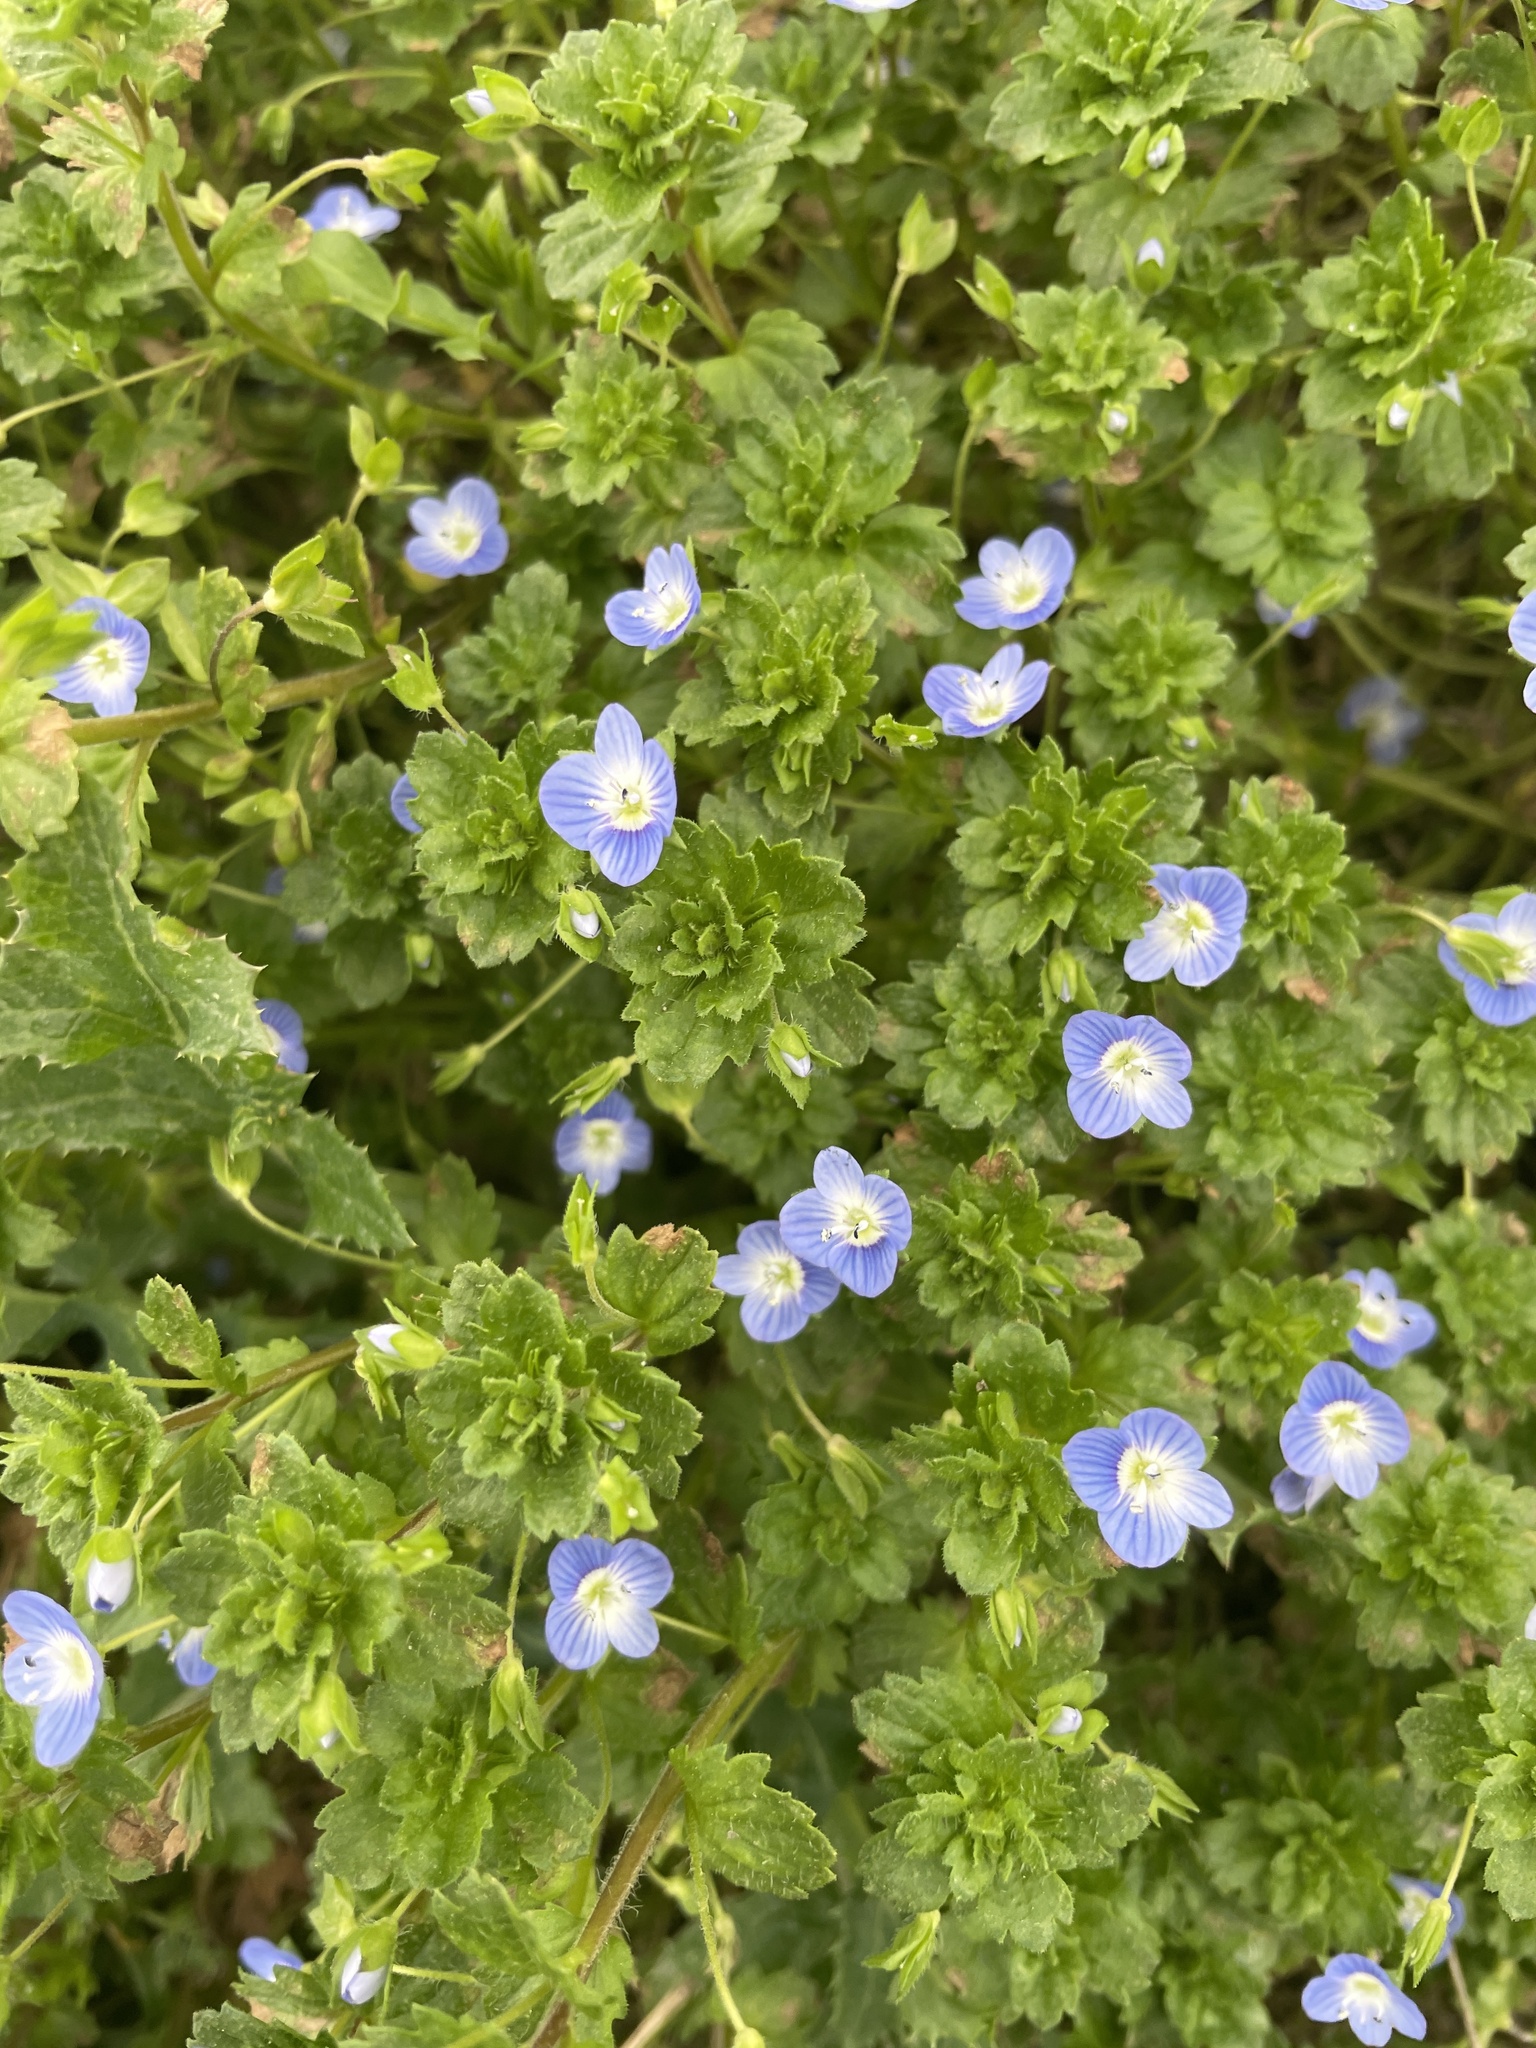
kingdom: Plantae
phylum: Tracheophyta
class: Magnoliopsida
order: Lamiales
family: Plantaginaceae
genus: Veronica
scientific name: Veronica persica
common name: Common field-speedwell
